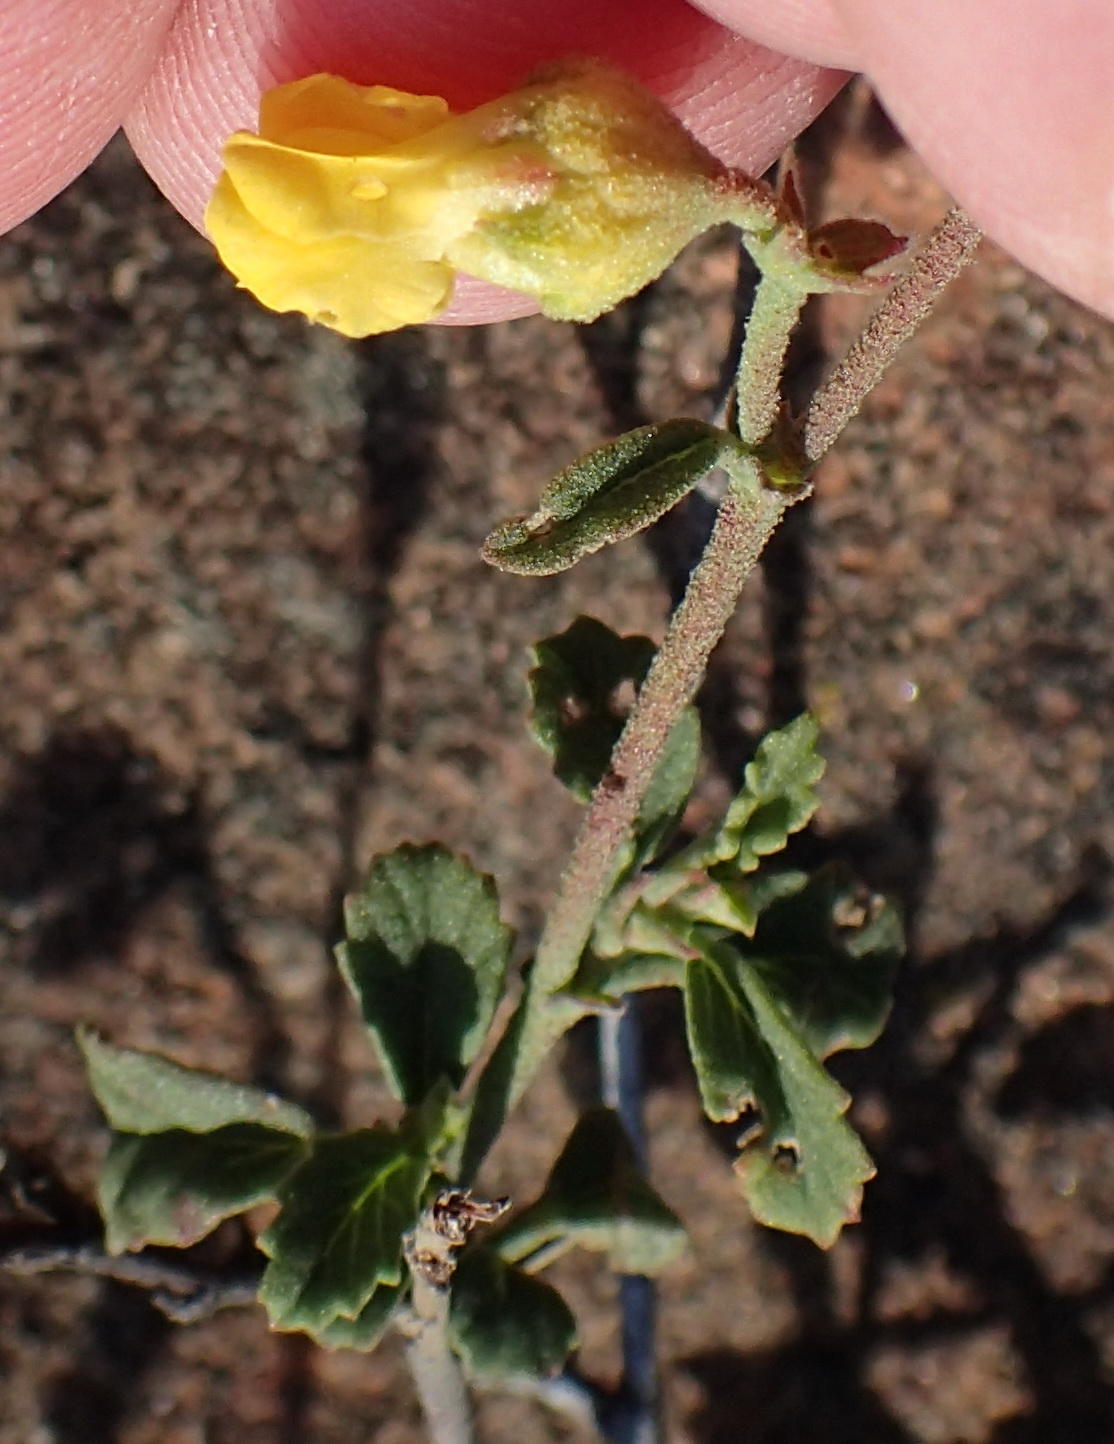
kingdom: Plantae
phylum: Tracheophyta
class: Magnoliopsida
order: Malvales
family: Malvaceae
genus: Hermannia
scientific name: Hermannia multiflora
